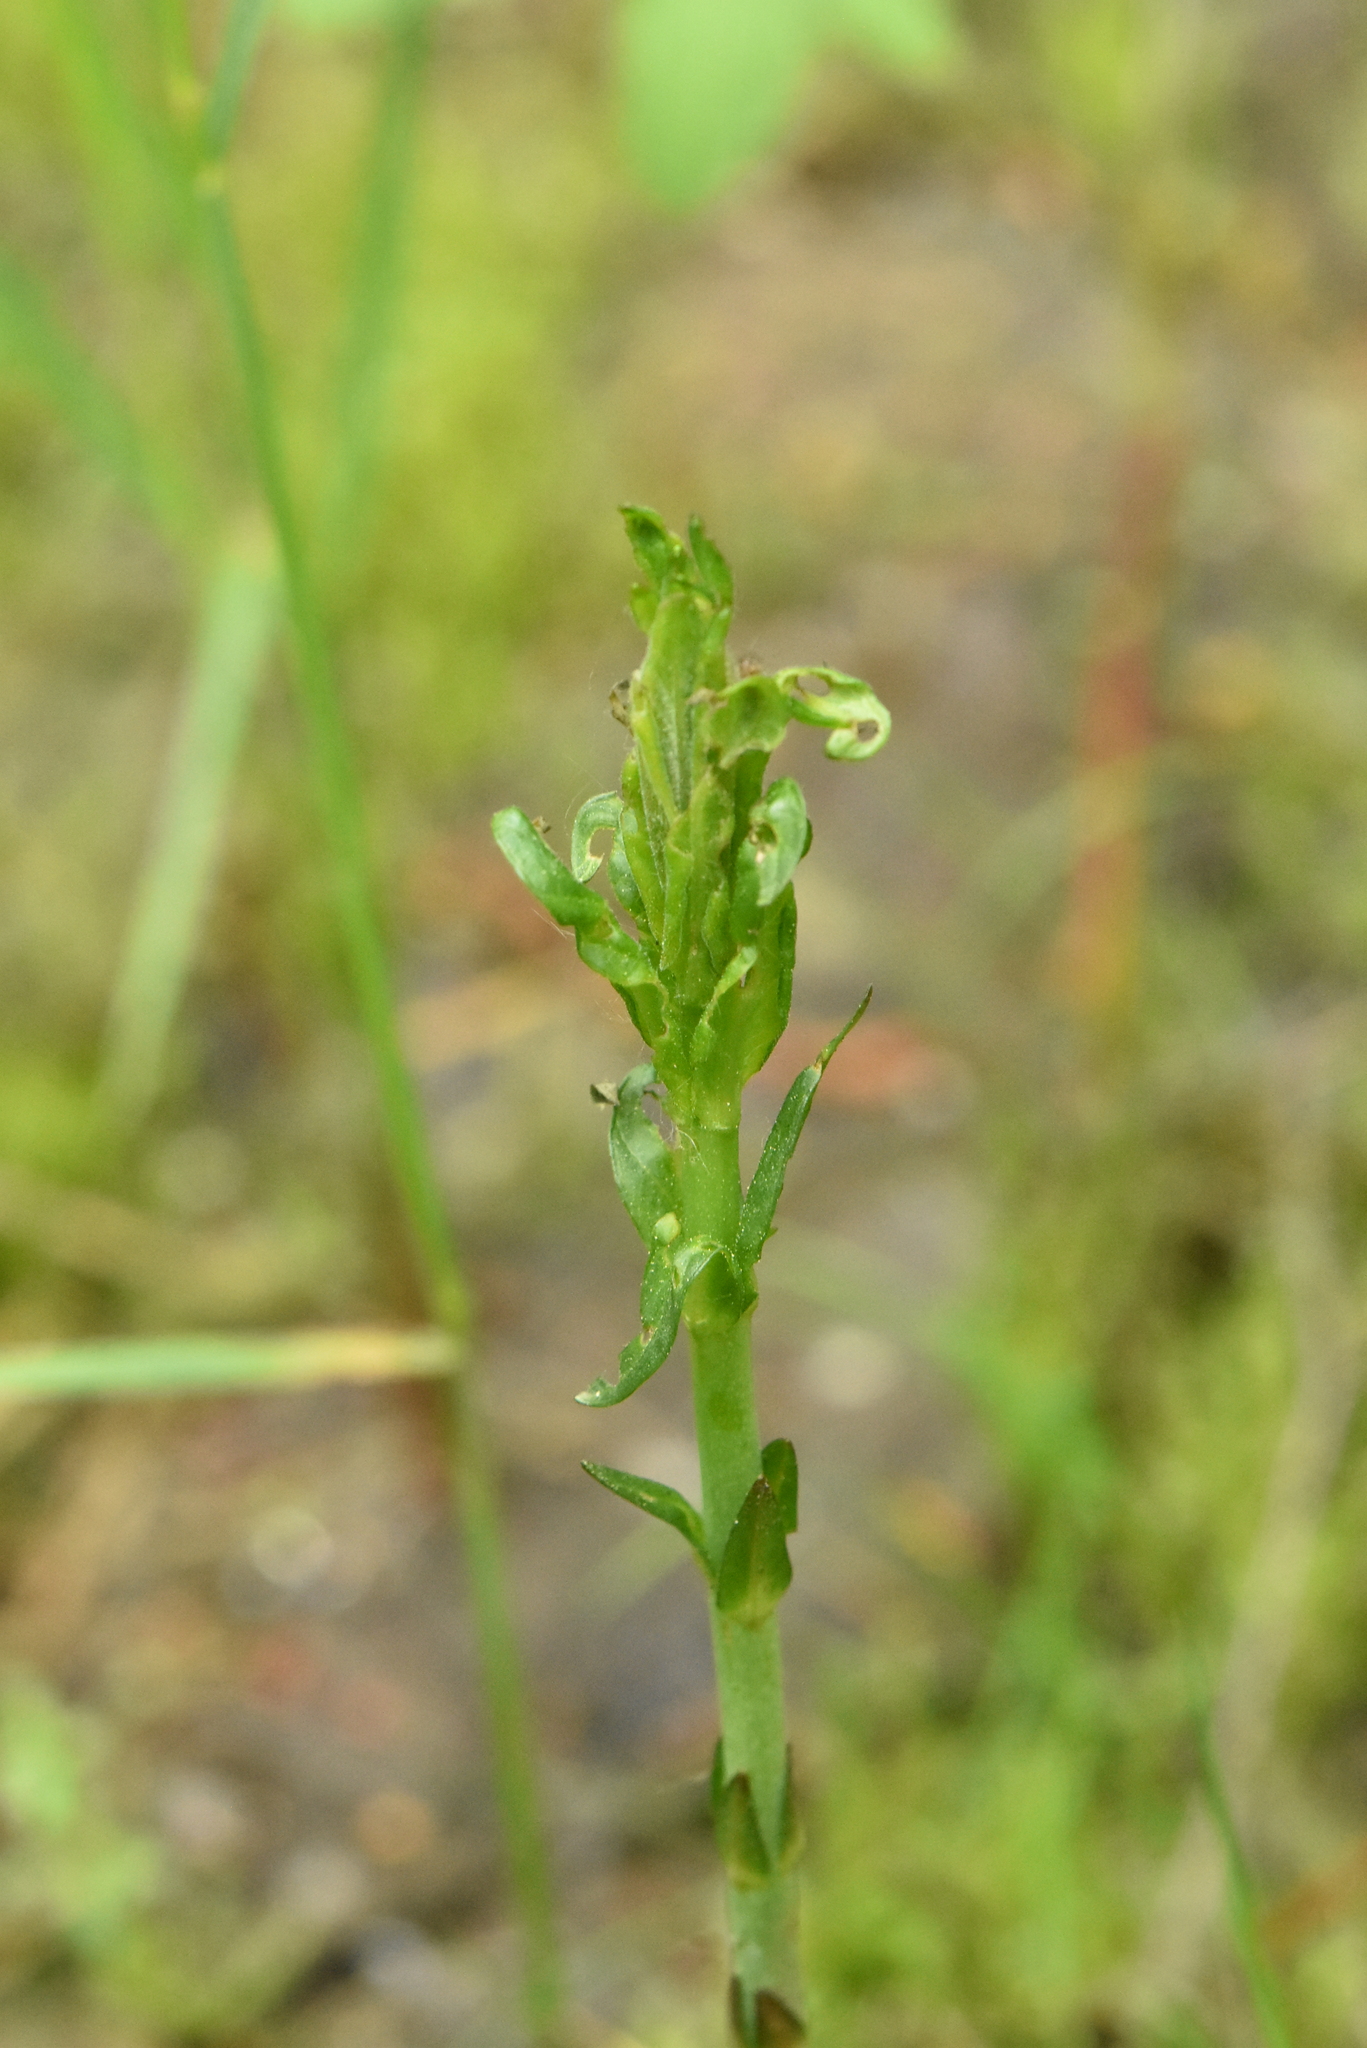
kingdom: Plantae
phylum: Tracheophyta
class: Magnoliopsida
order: Ericales
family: Primulaceae
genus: Lysimachia
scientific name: Lysimachia vulgaris
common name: Yellow loosestrife
